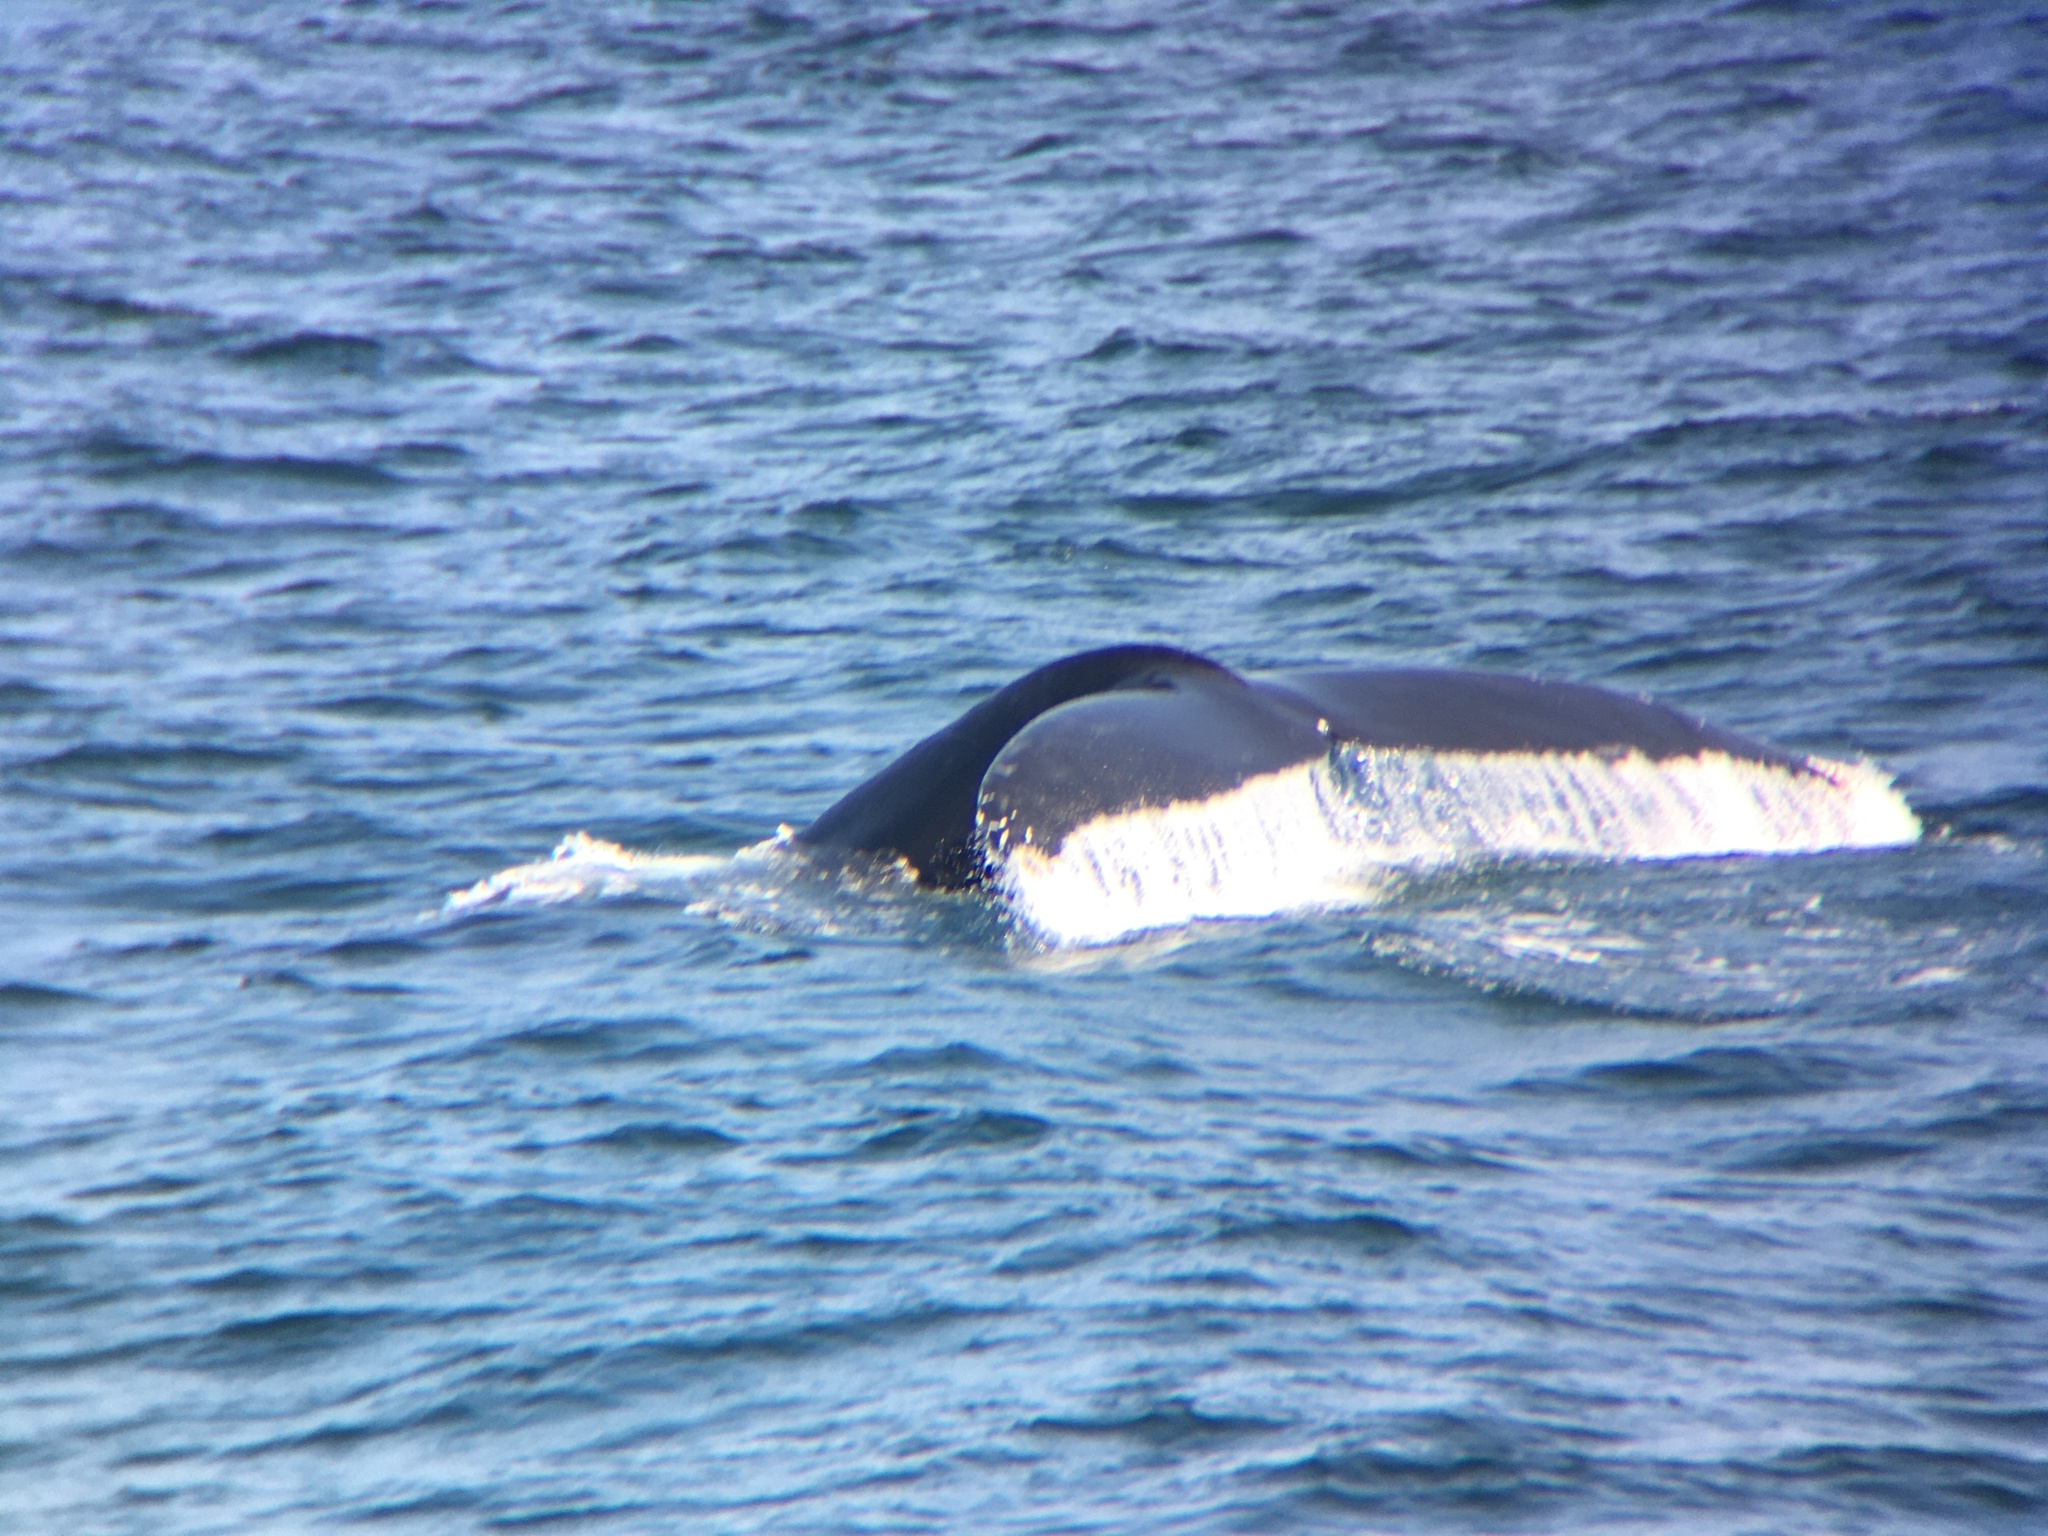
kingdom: Animalia
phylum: Chordata
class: Mammalia
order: Cetacea
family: Balaenopteridae
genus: Megaptera
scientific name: Megaptera novaeangliae
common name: Humpback whale
